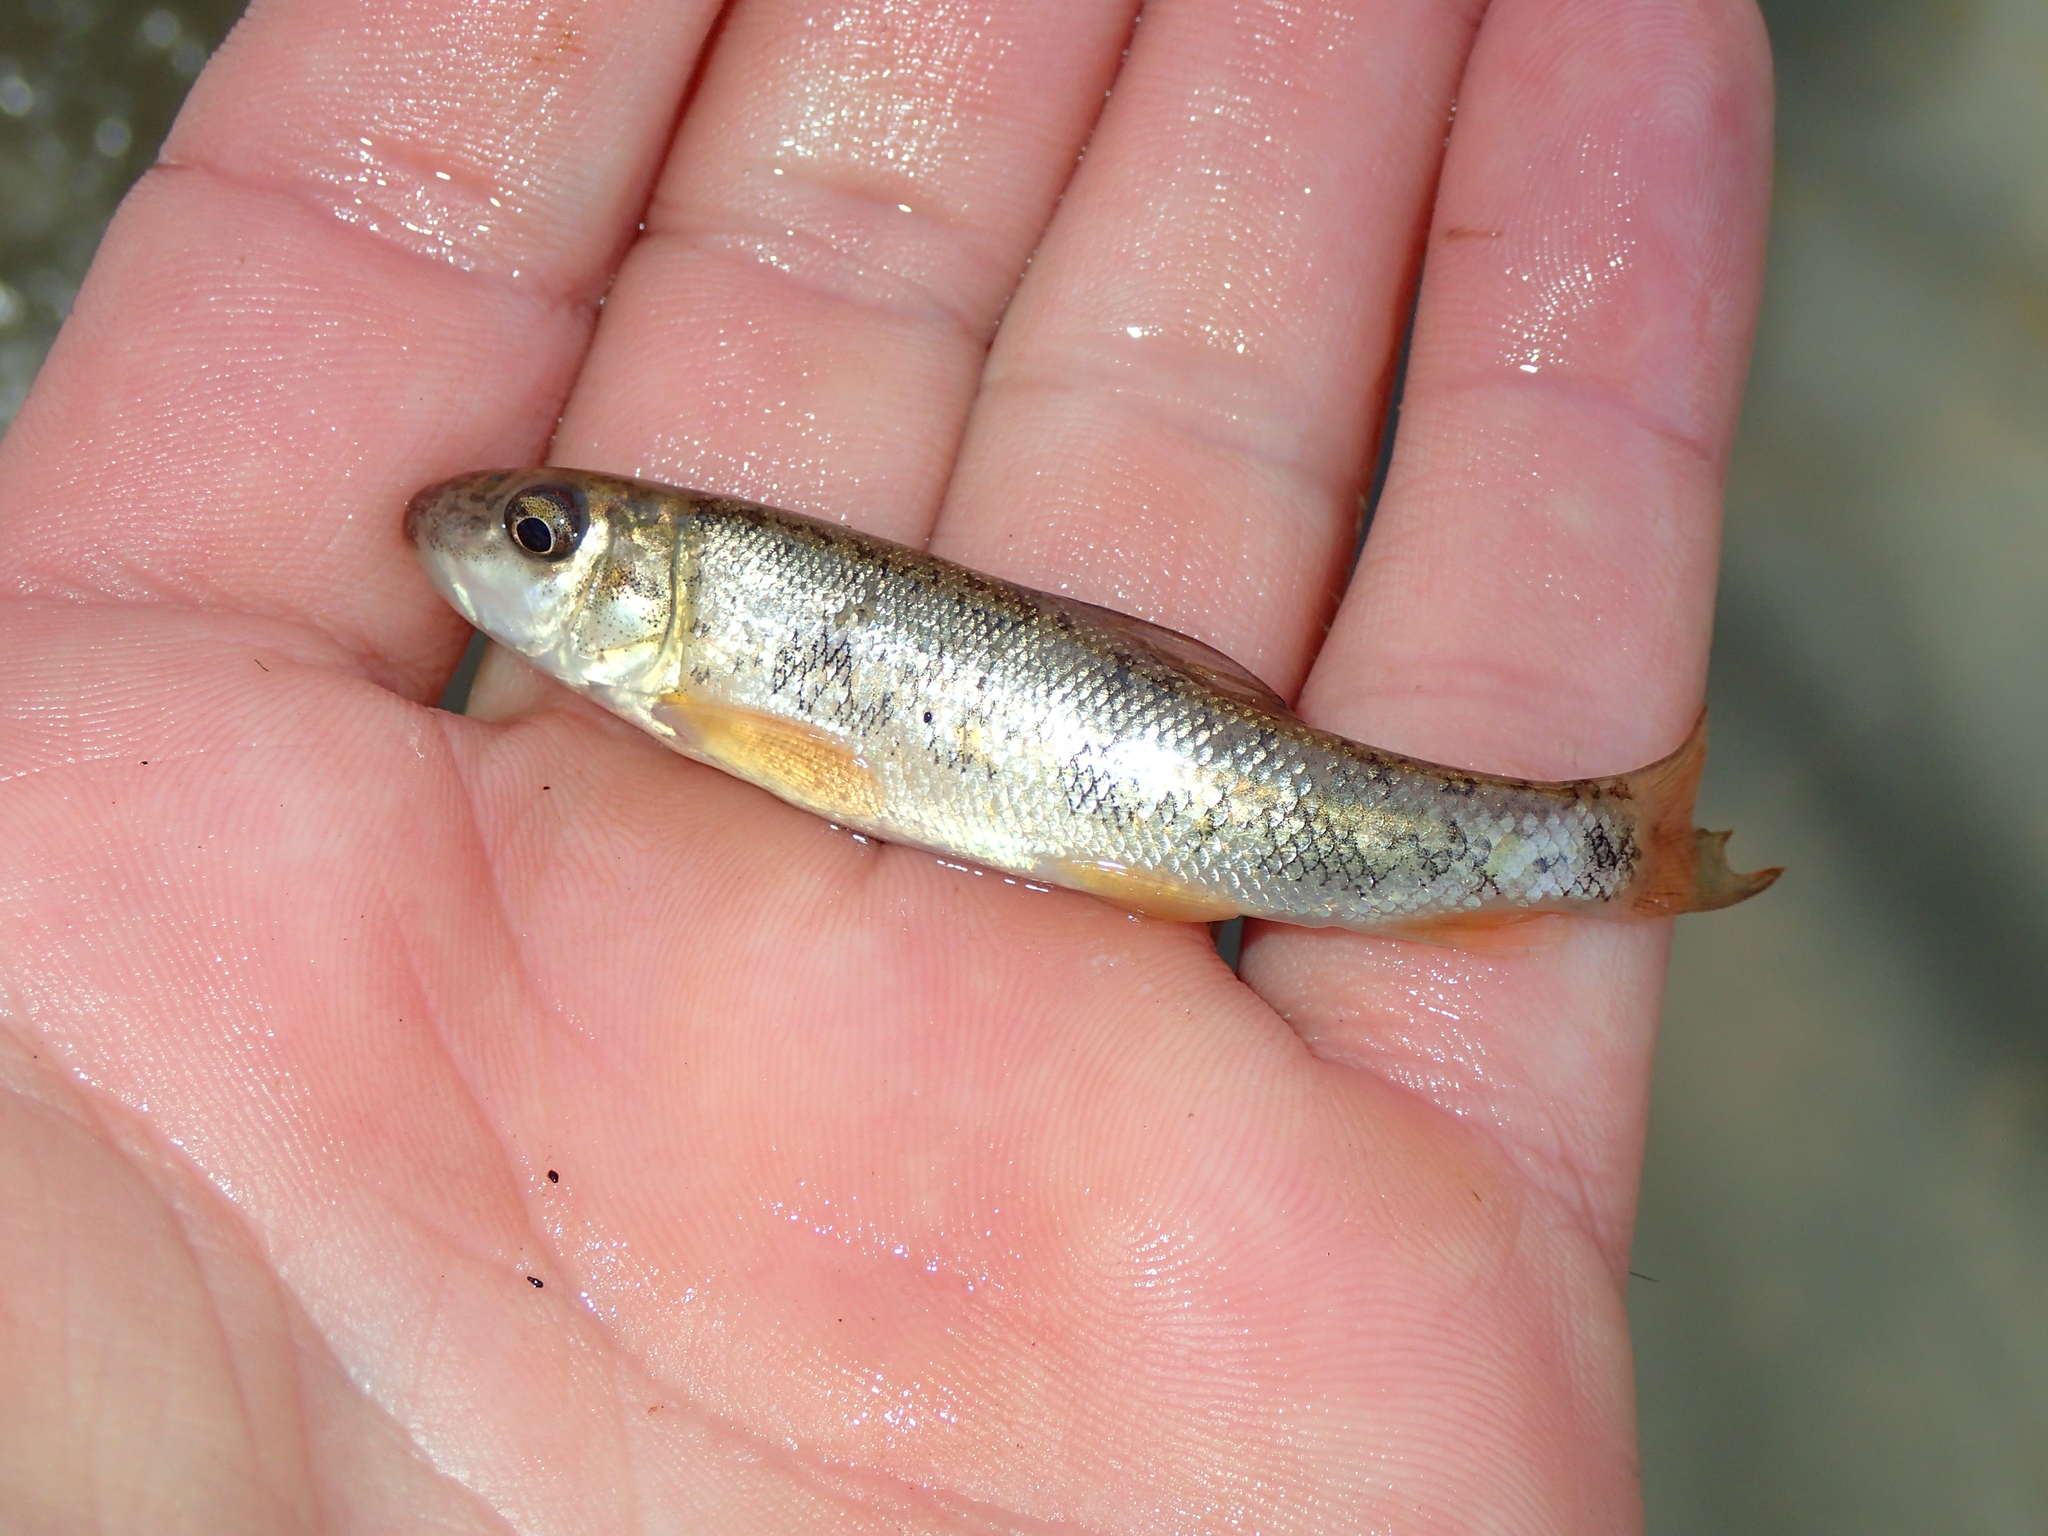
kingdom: Animalia
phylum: Chordata
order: Cypriniformes
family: Catostomidae
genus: Catostomus
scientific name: Catostomus commersonii
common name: White sucker
